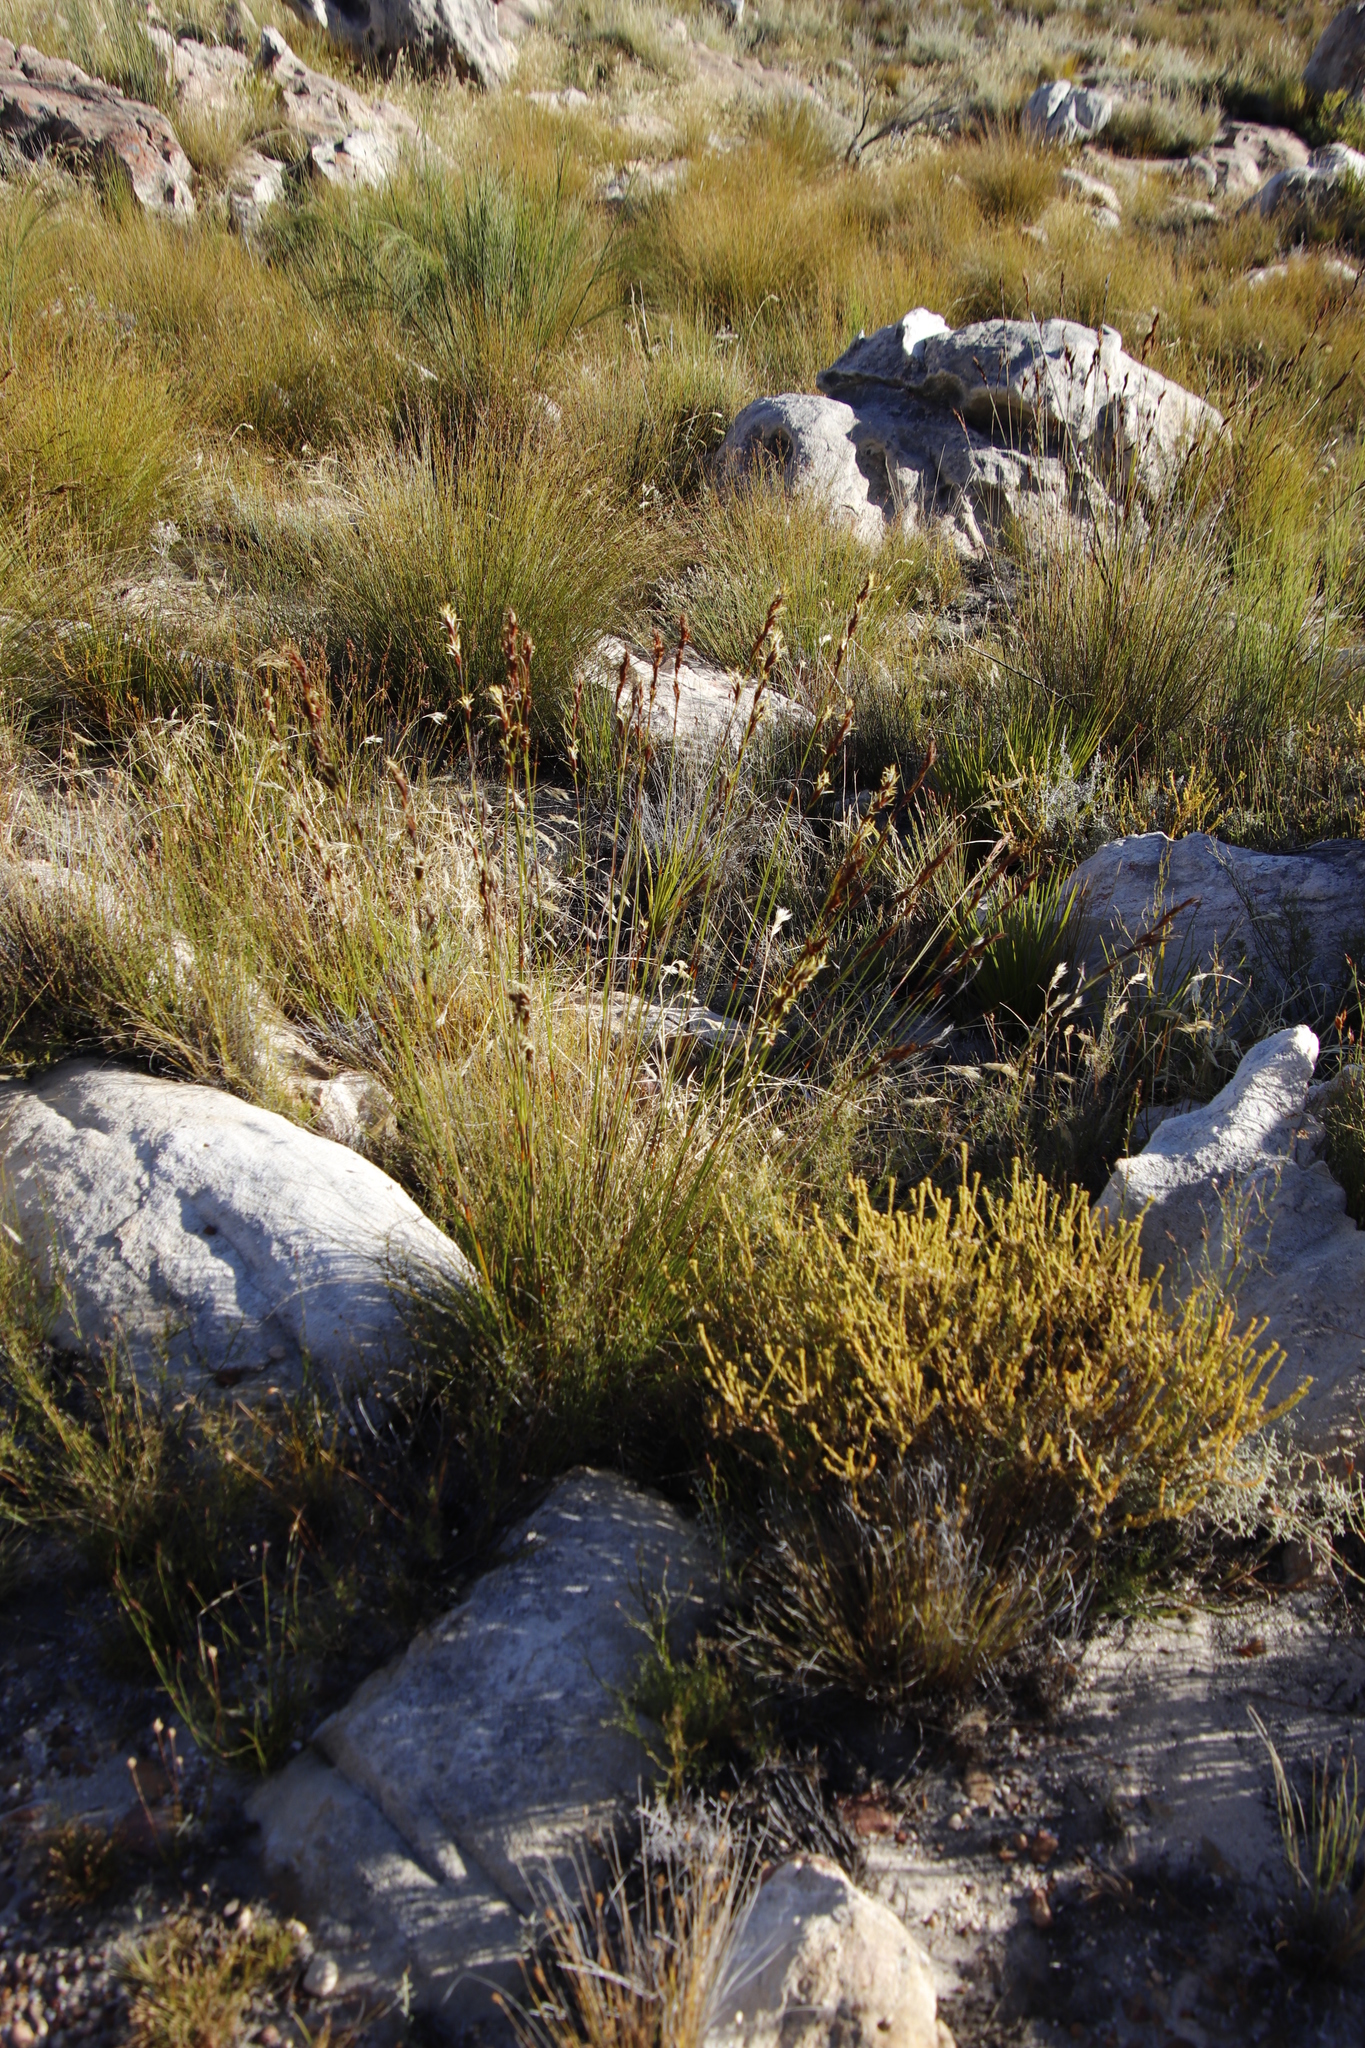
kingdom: Plantae
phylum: Tracheophyta
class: Liliopsida
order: Poales
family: Cyperaceae
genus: Tetraria
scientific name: Tetraria ustulata
